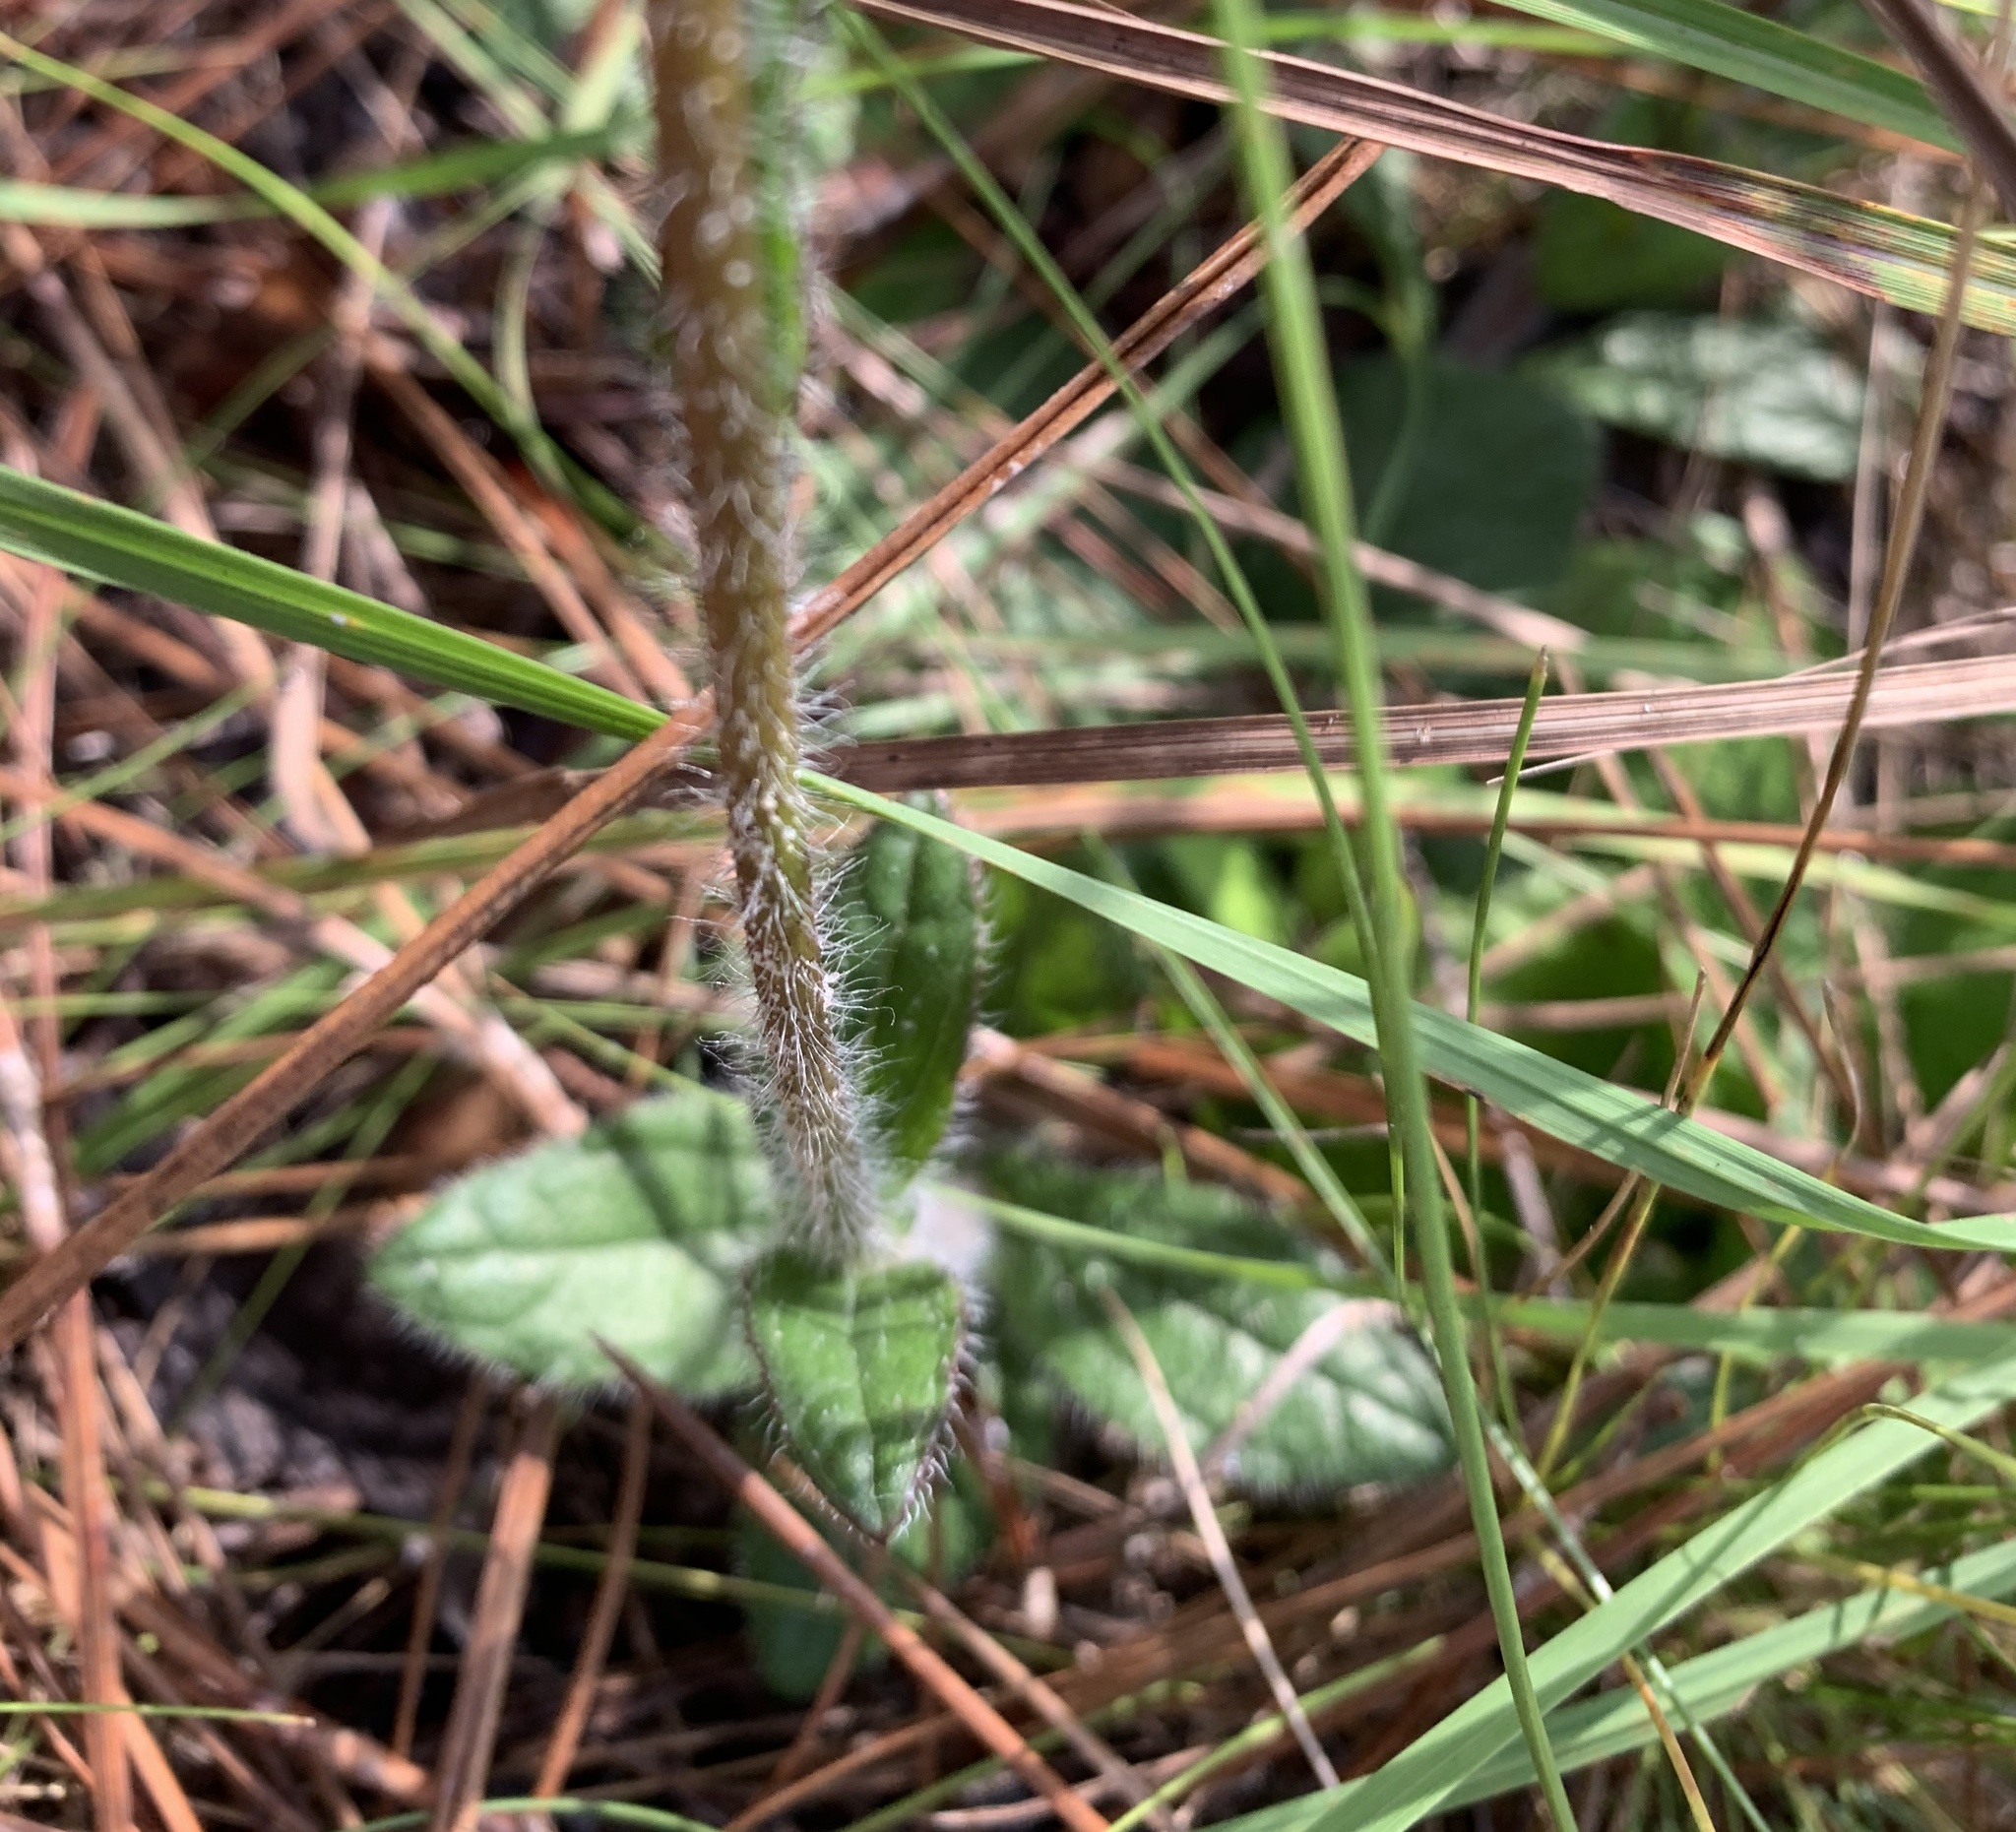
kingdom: Plantae
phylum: Tracheophyta
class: Magnoliopsida
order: Asterales
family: Asteraceae
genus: Helianthus
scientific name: Helianthus radula
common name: Pineland sunflower
